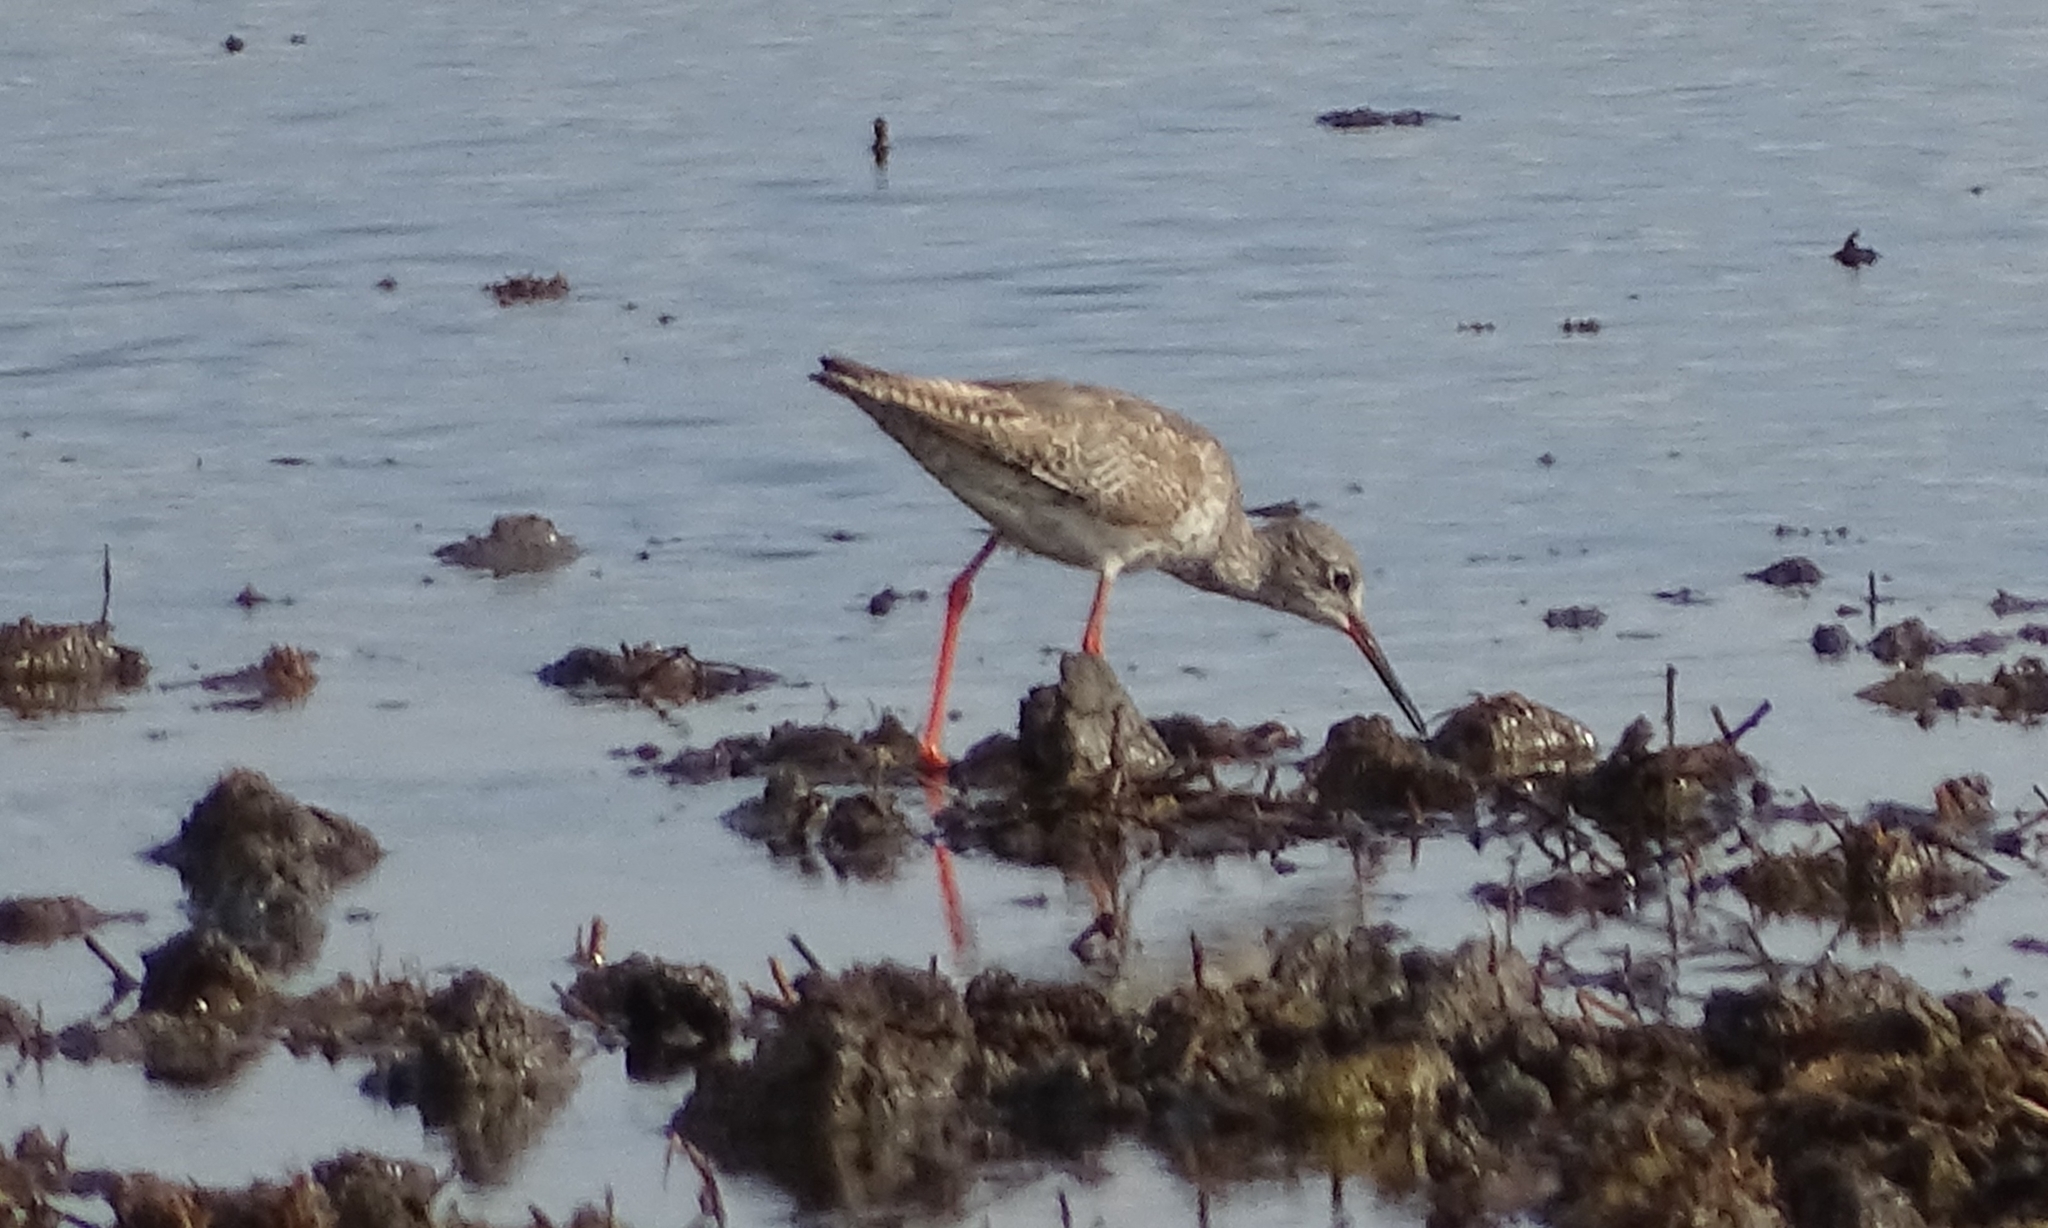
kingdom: Animalia
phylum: Chordata
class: Aves
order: Charadriiformes
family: Scolopacidae
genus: Tringa
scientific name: Tringa totanus
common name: Common redshank
